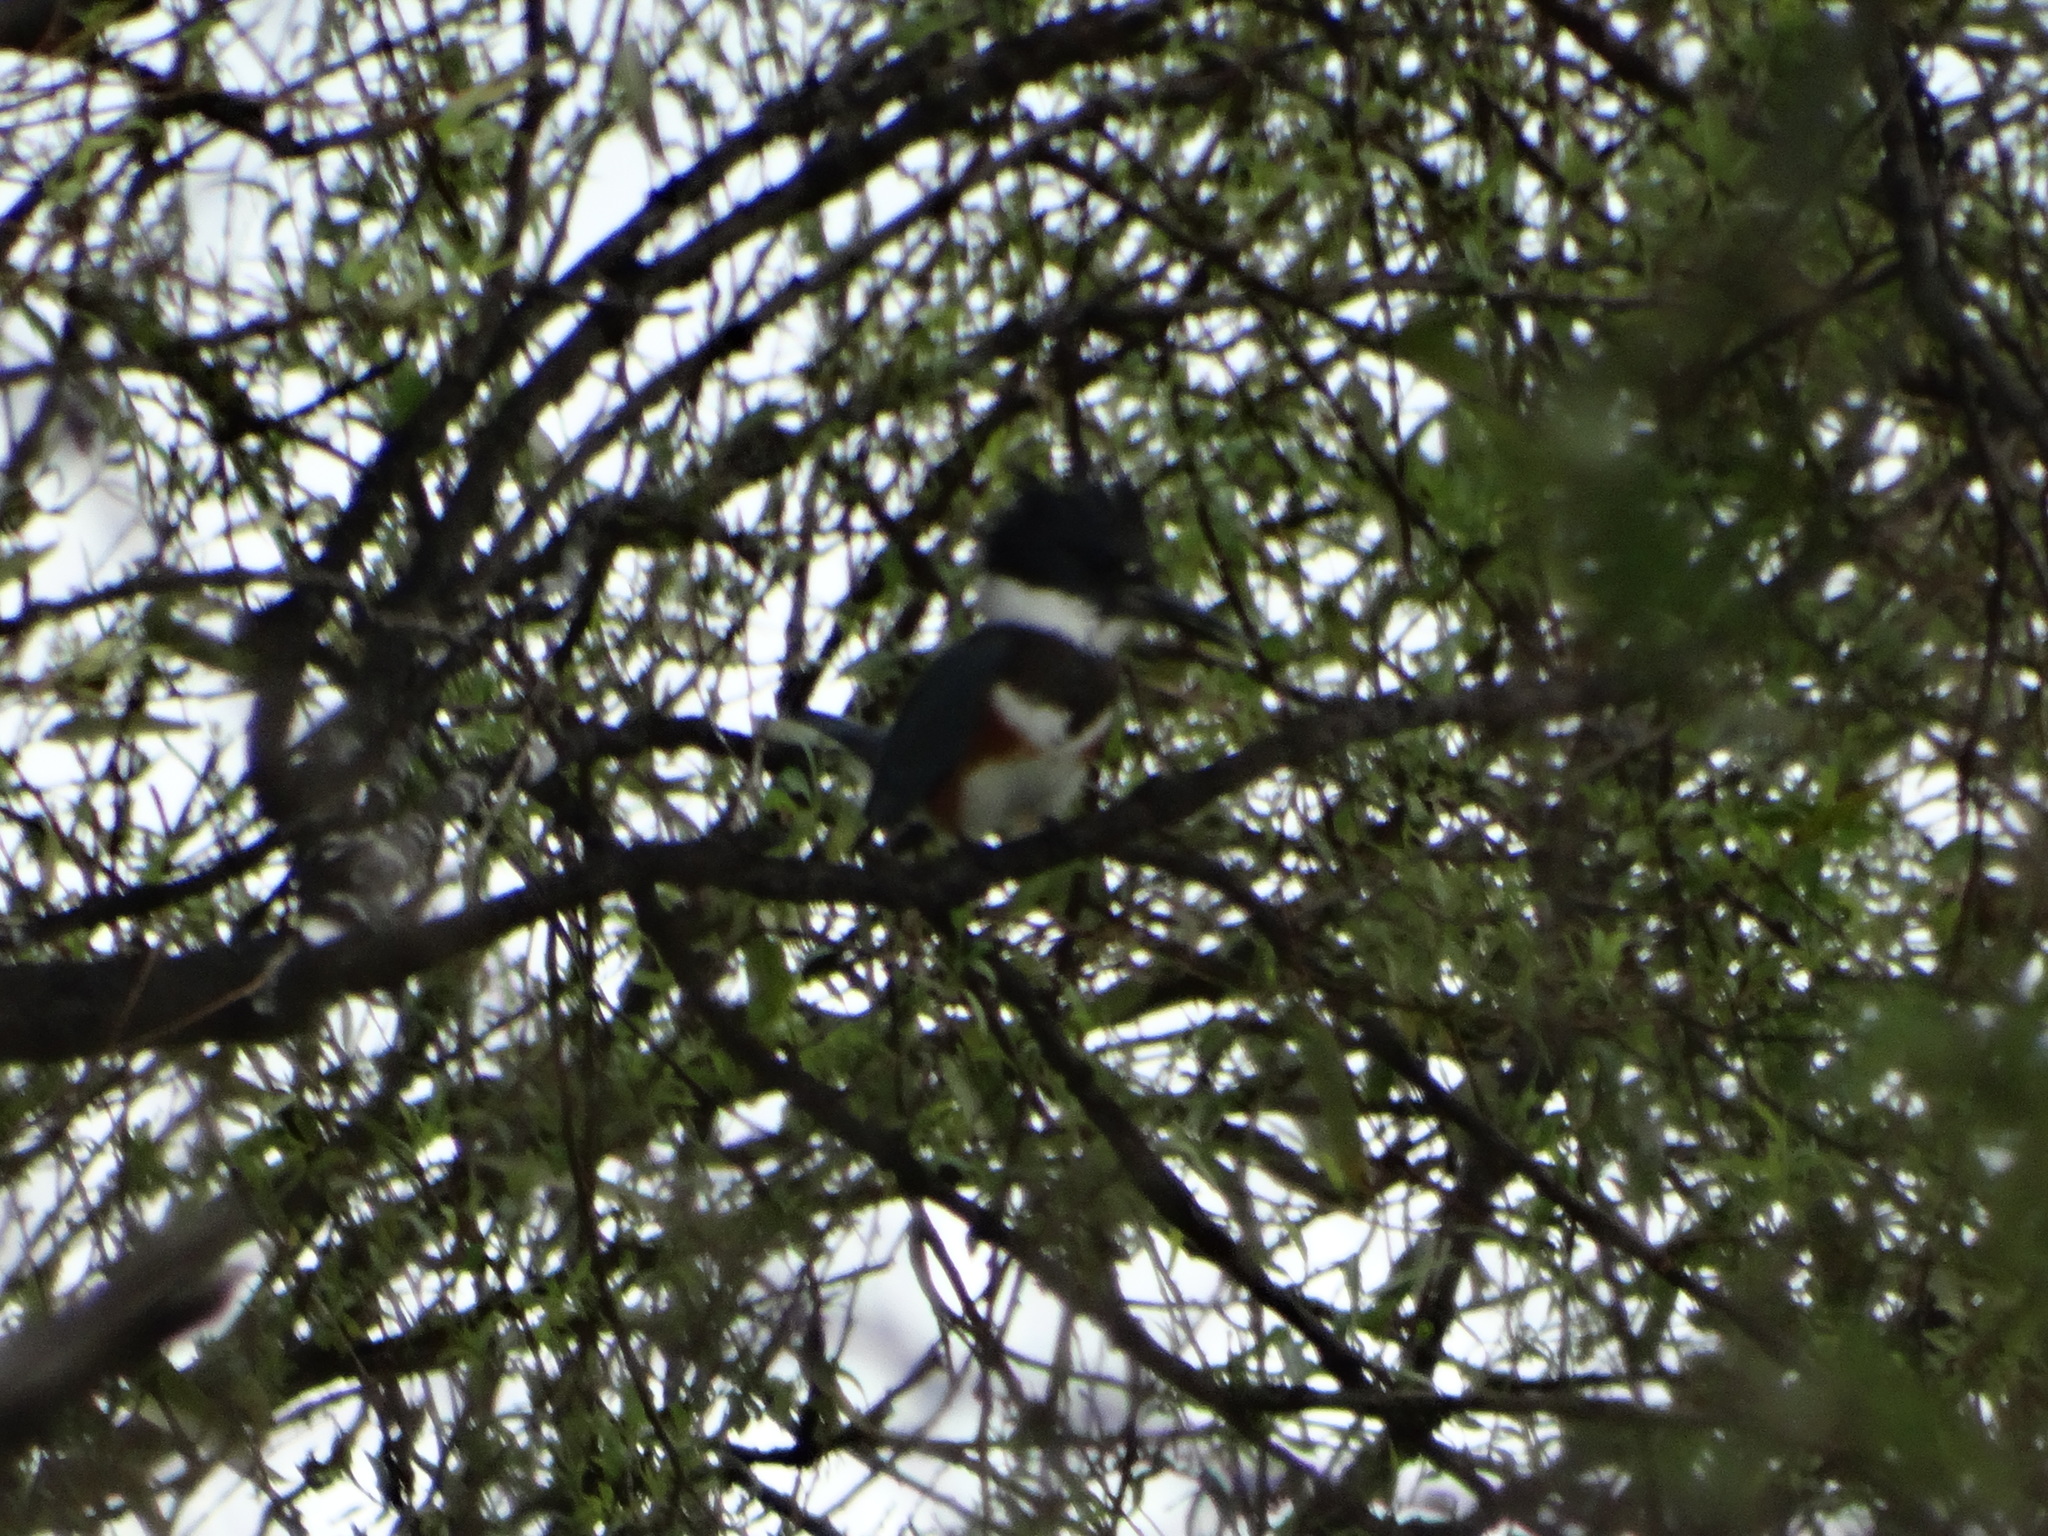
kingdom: Animalia
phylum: Chordata
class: Aves
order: Coraciiformes
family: Alcedinidae
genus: Megaceryle
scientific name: Megaceryle alcyon
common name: Belted kingfisher
